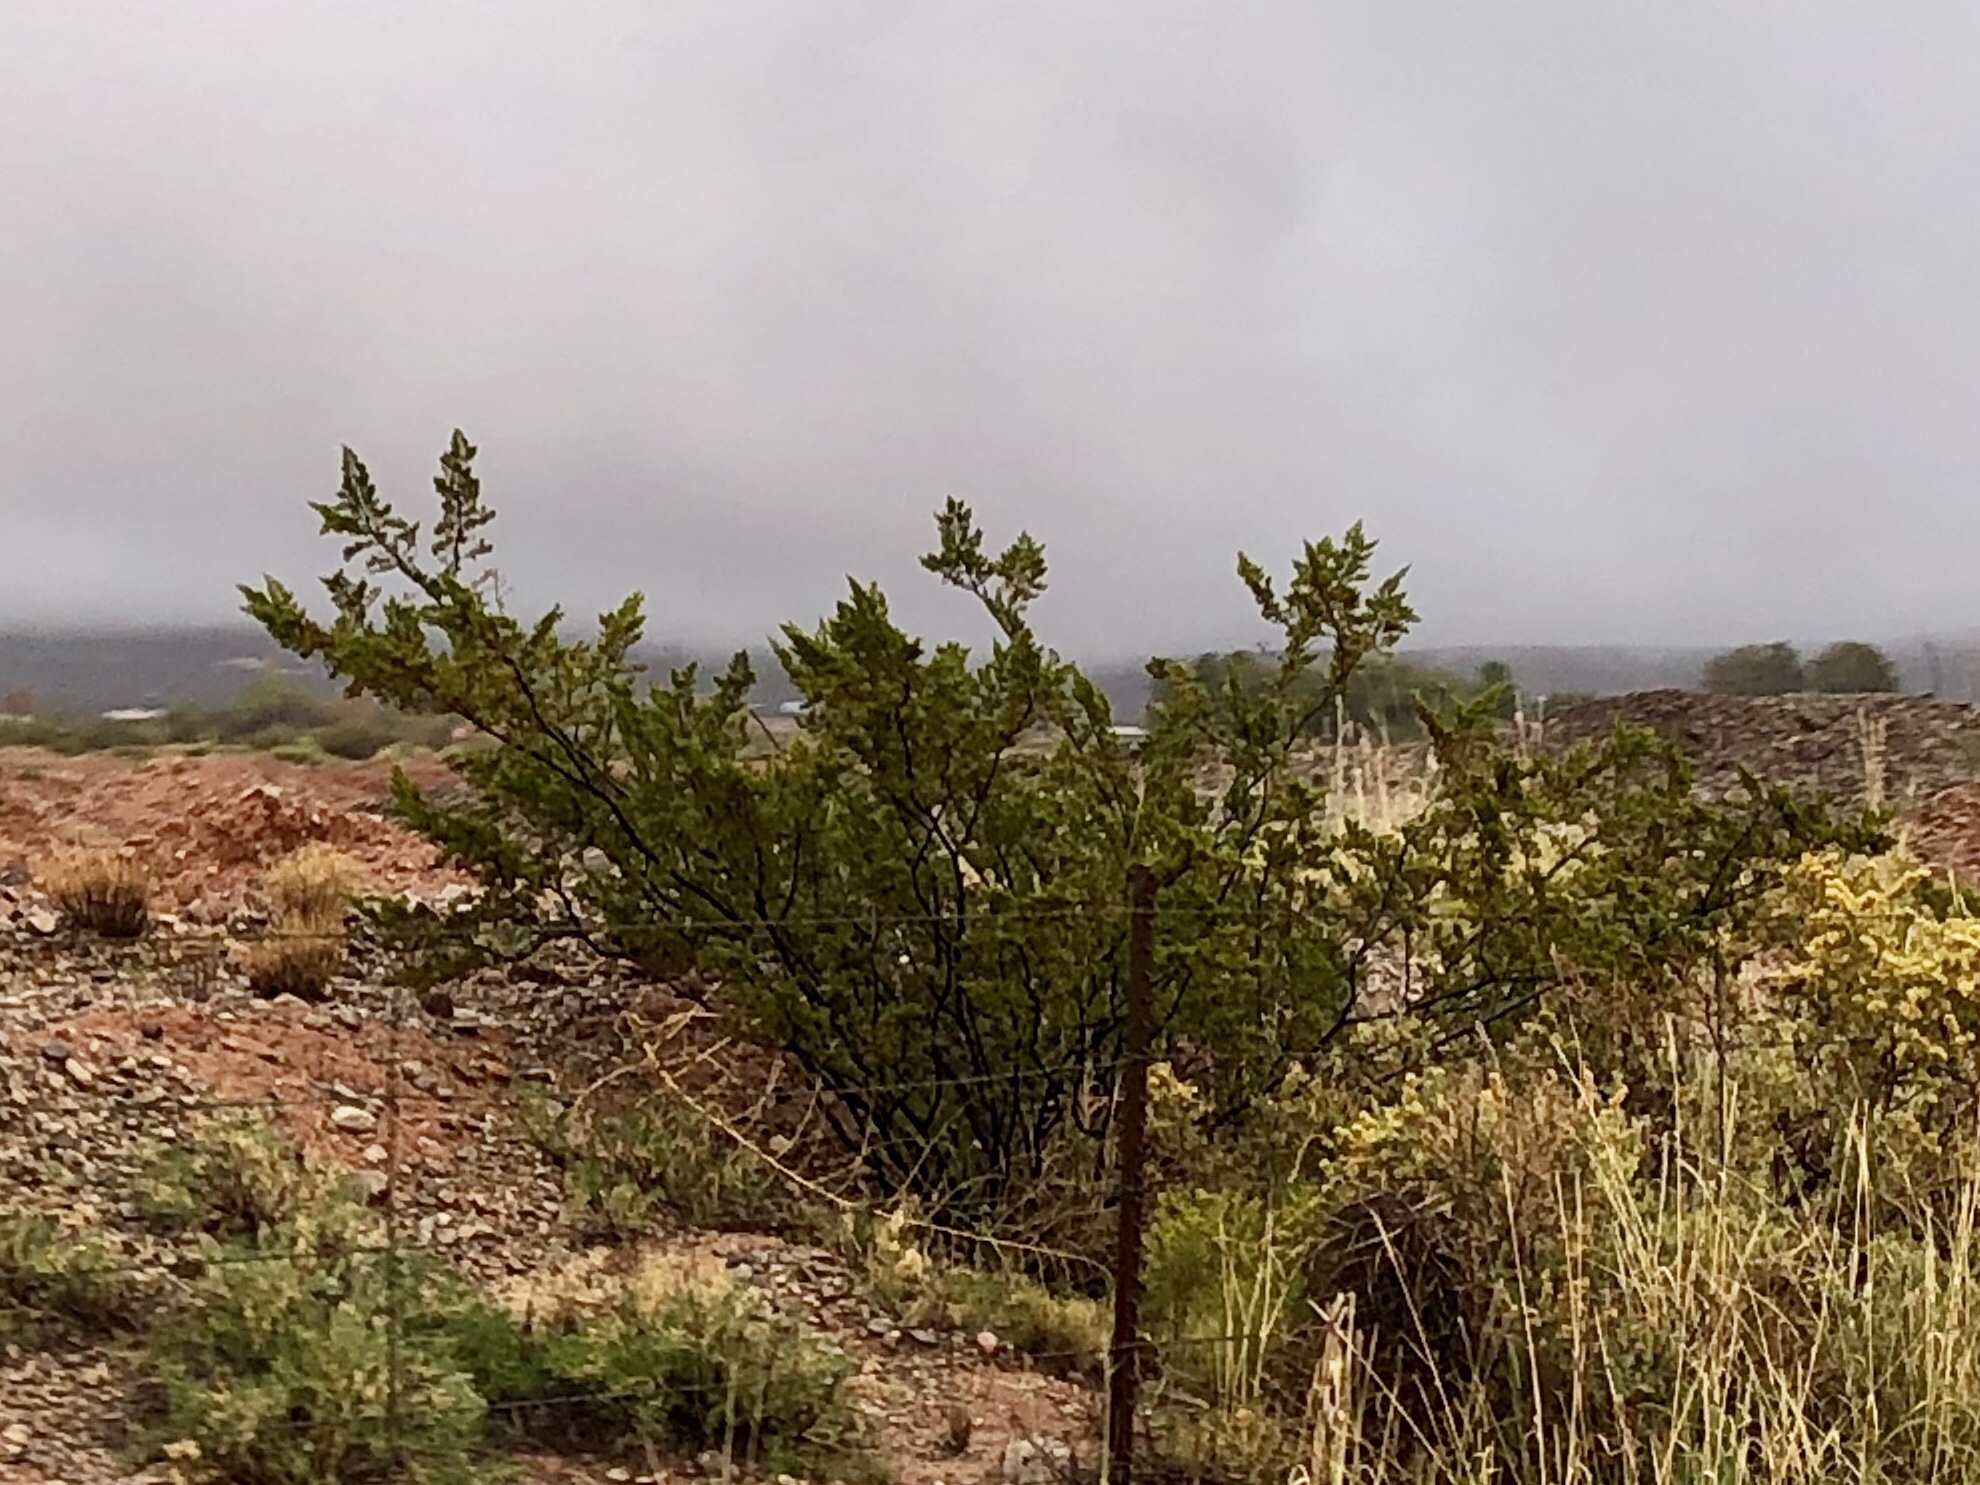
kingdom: Plantae
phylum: Tracheophyta
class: Magnoliopsida
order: Zygophyllales
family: Zygophyllaceae
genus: Larrea
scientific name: Larrea tridentata
